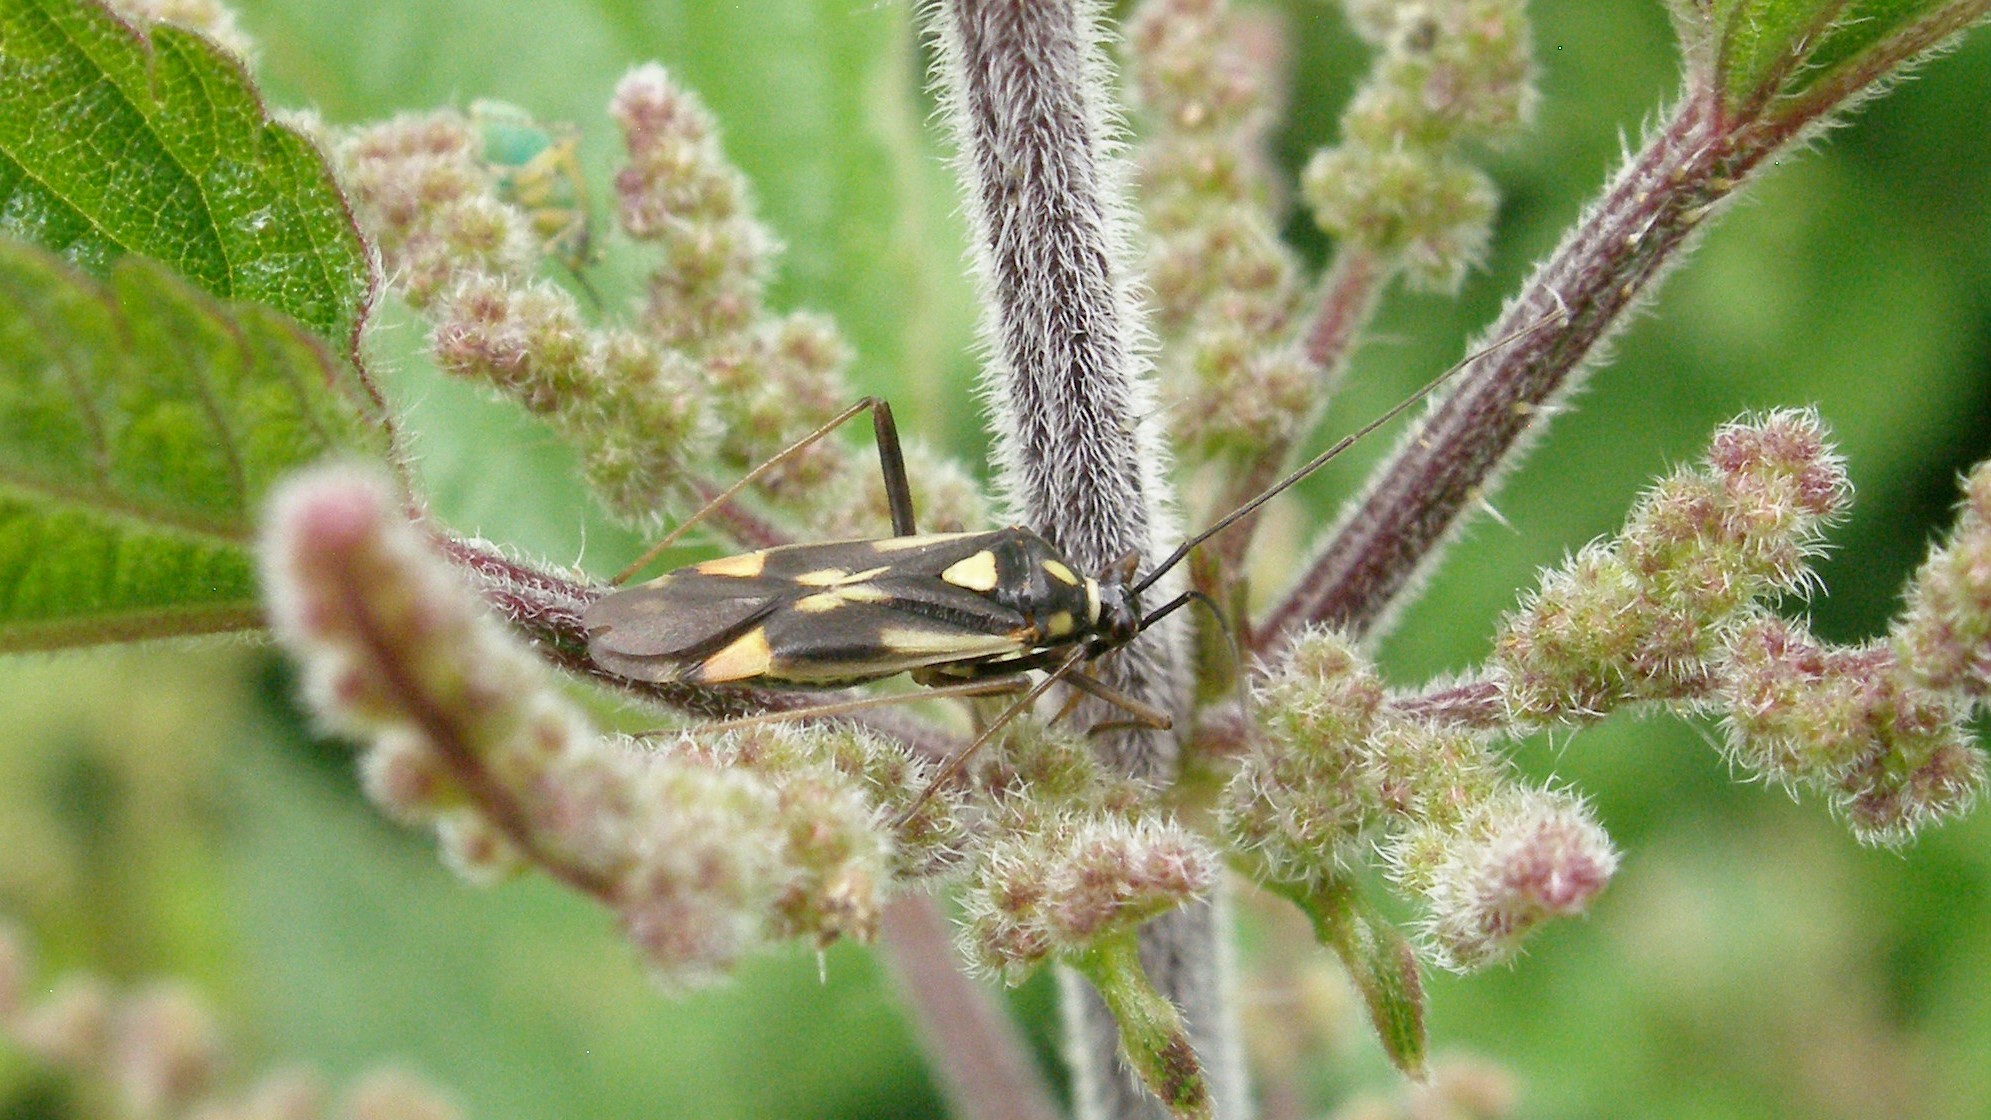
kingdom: Animalia
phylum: Arthropoda
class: Insecta
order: Hemiptera
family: Miridae
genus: Grypocoris
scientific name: Grypocoris stysi
